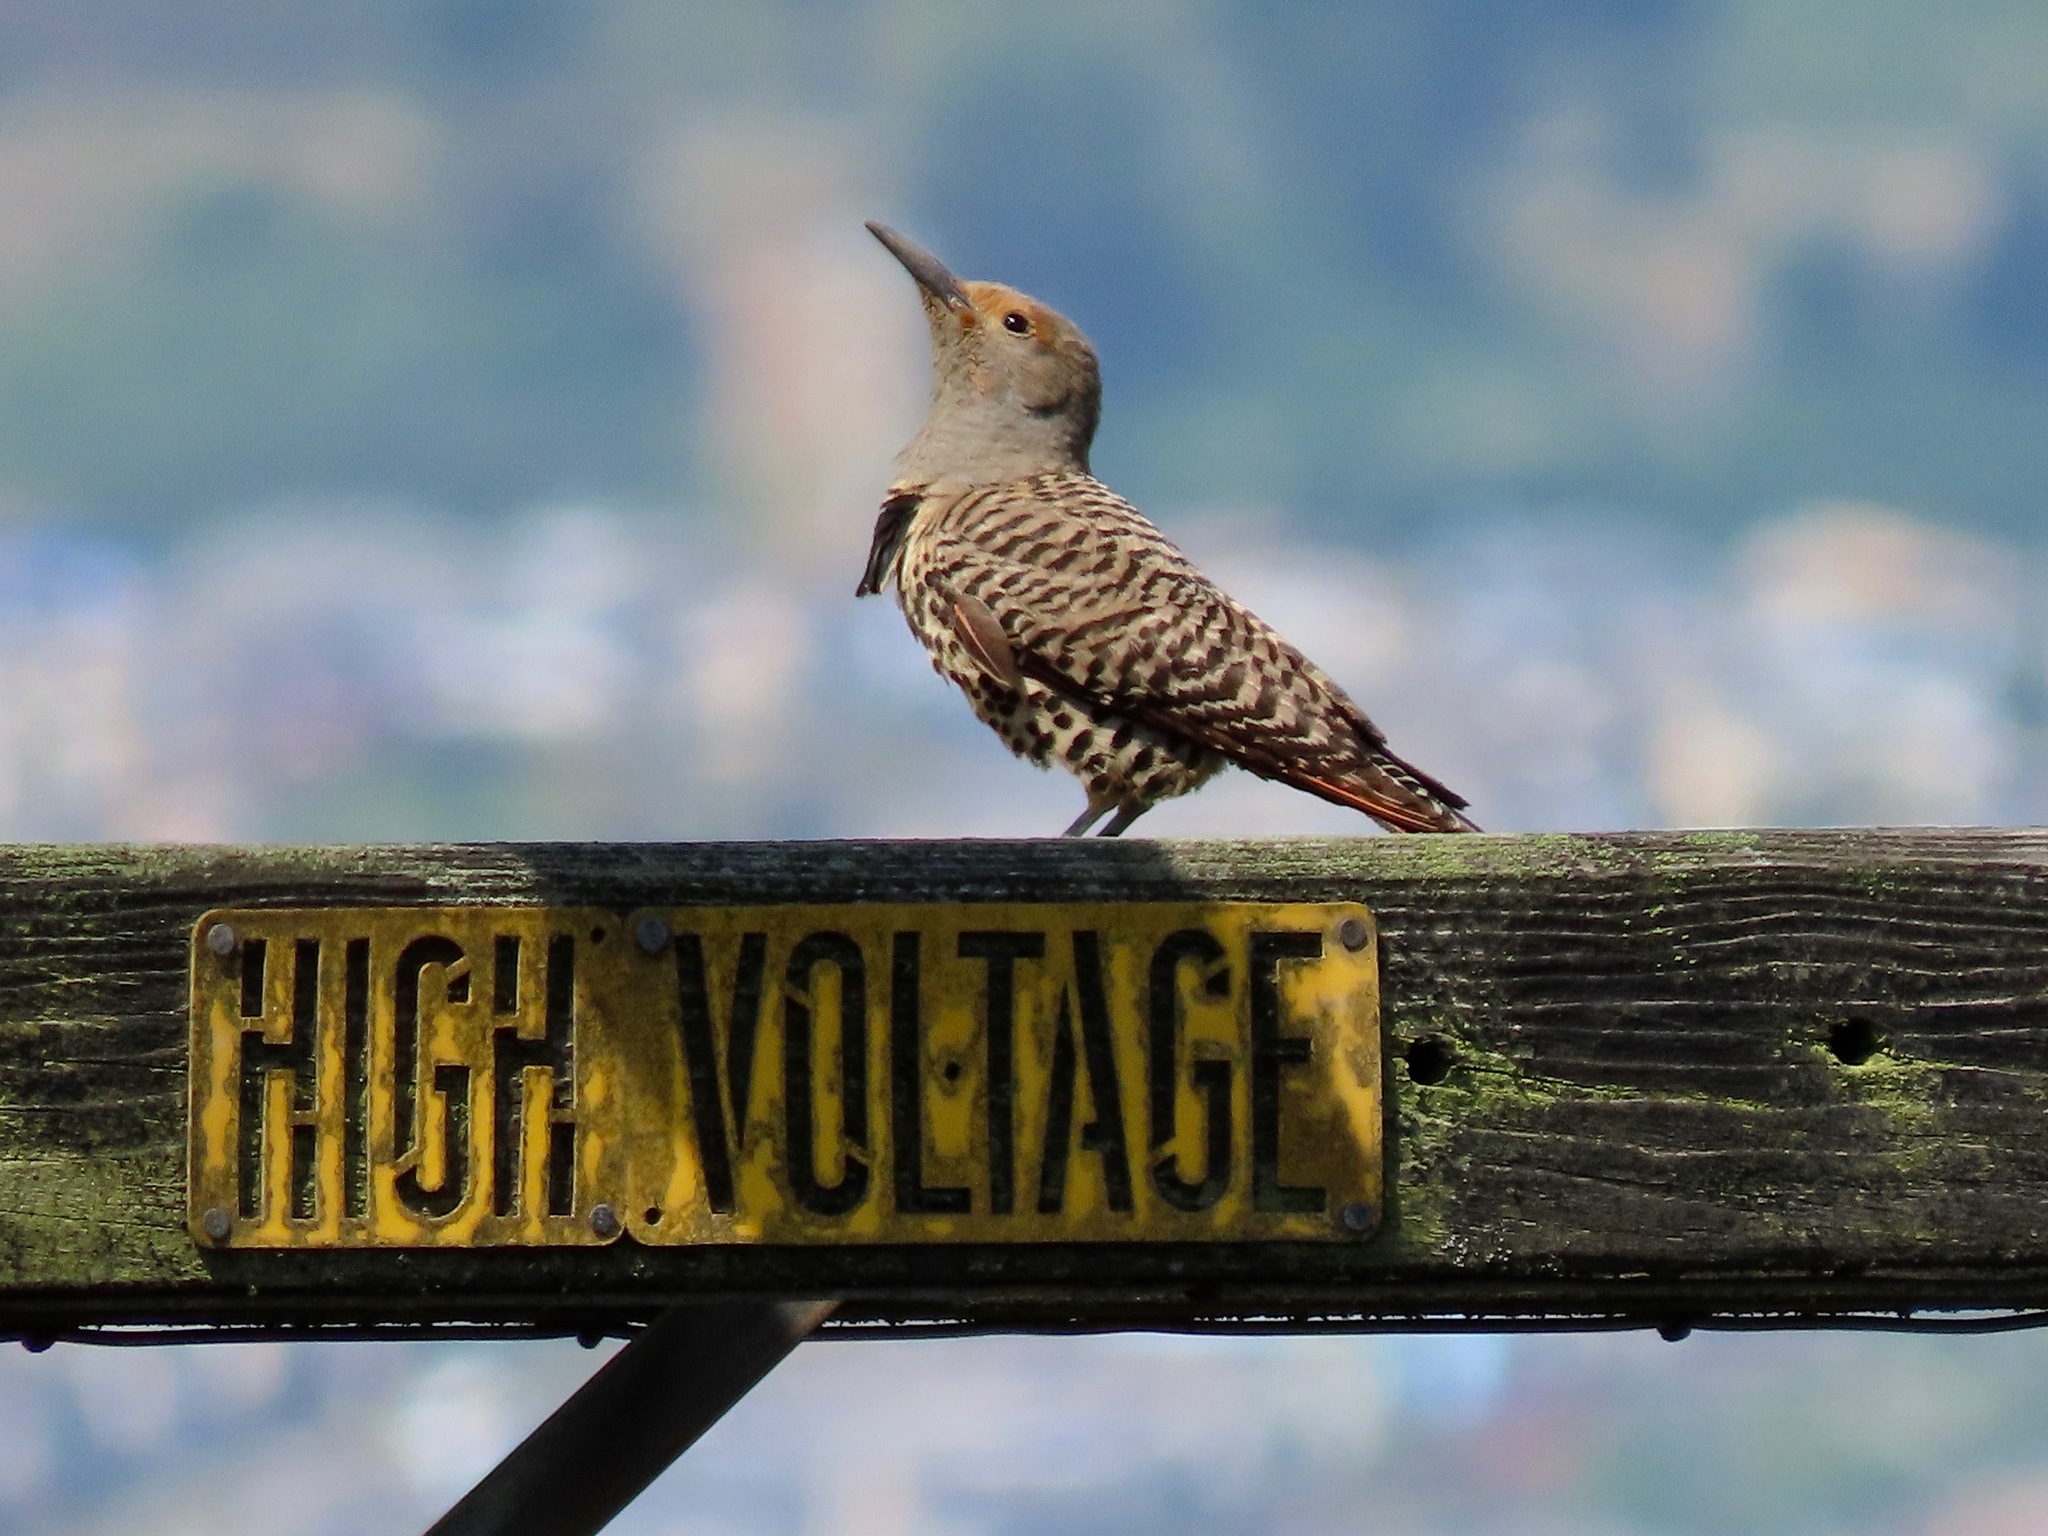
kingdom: Animalia
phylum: Chordata
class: Aves
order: Piciformes
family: Picidae
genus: Colaptes
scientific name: Colaptes auratus
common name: Northern flicker
